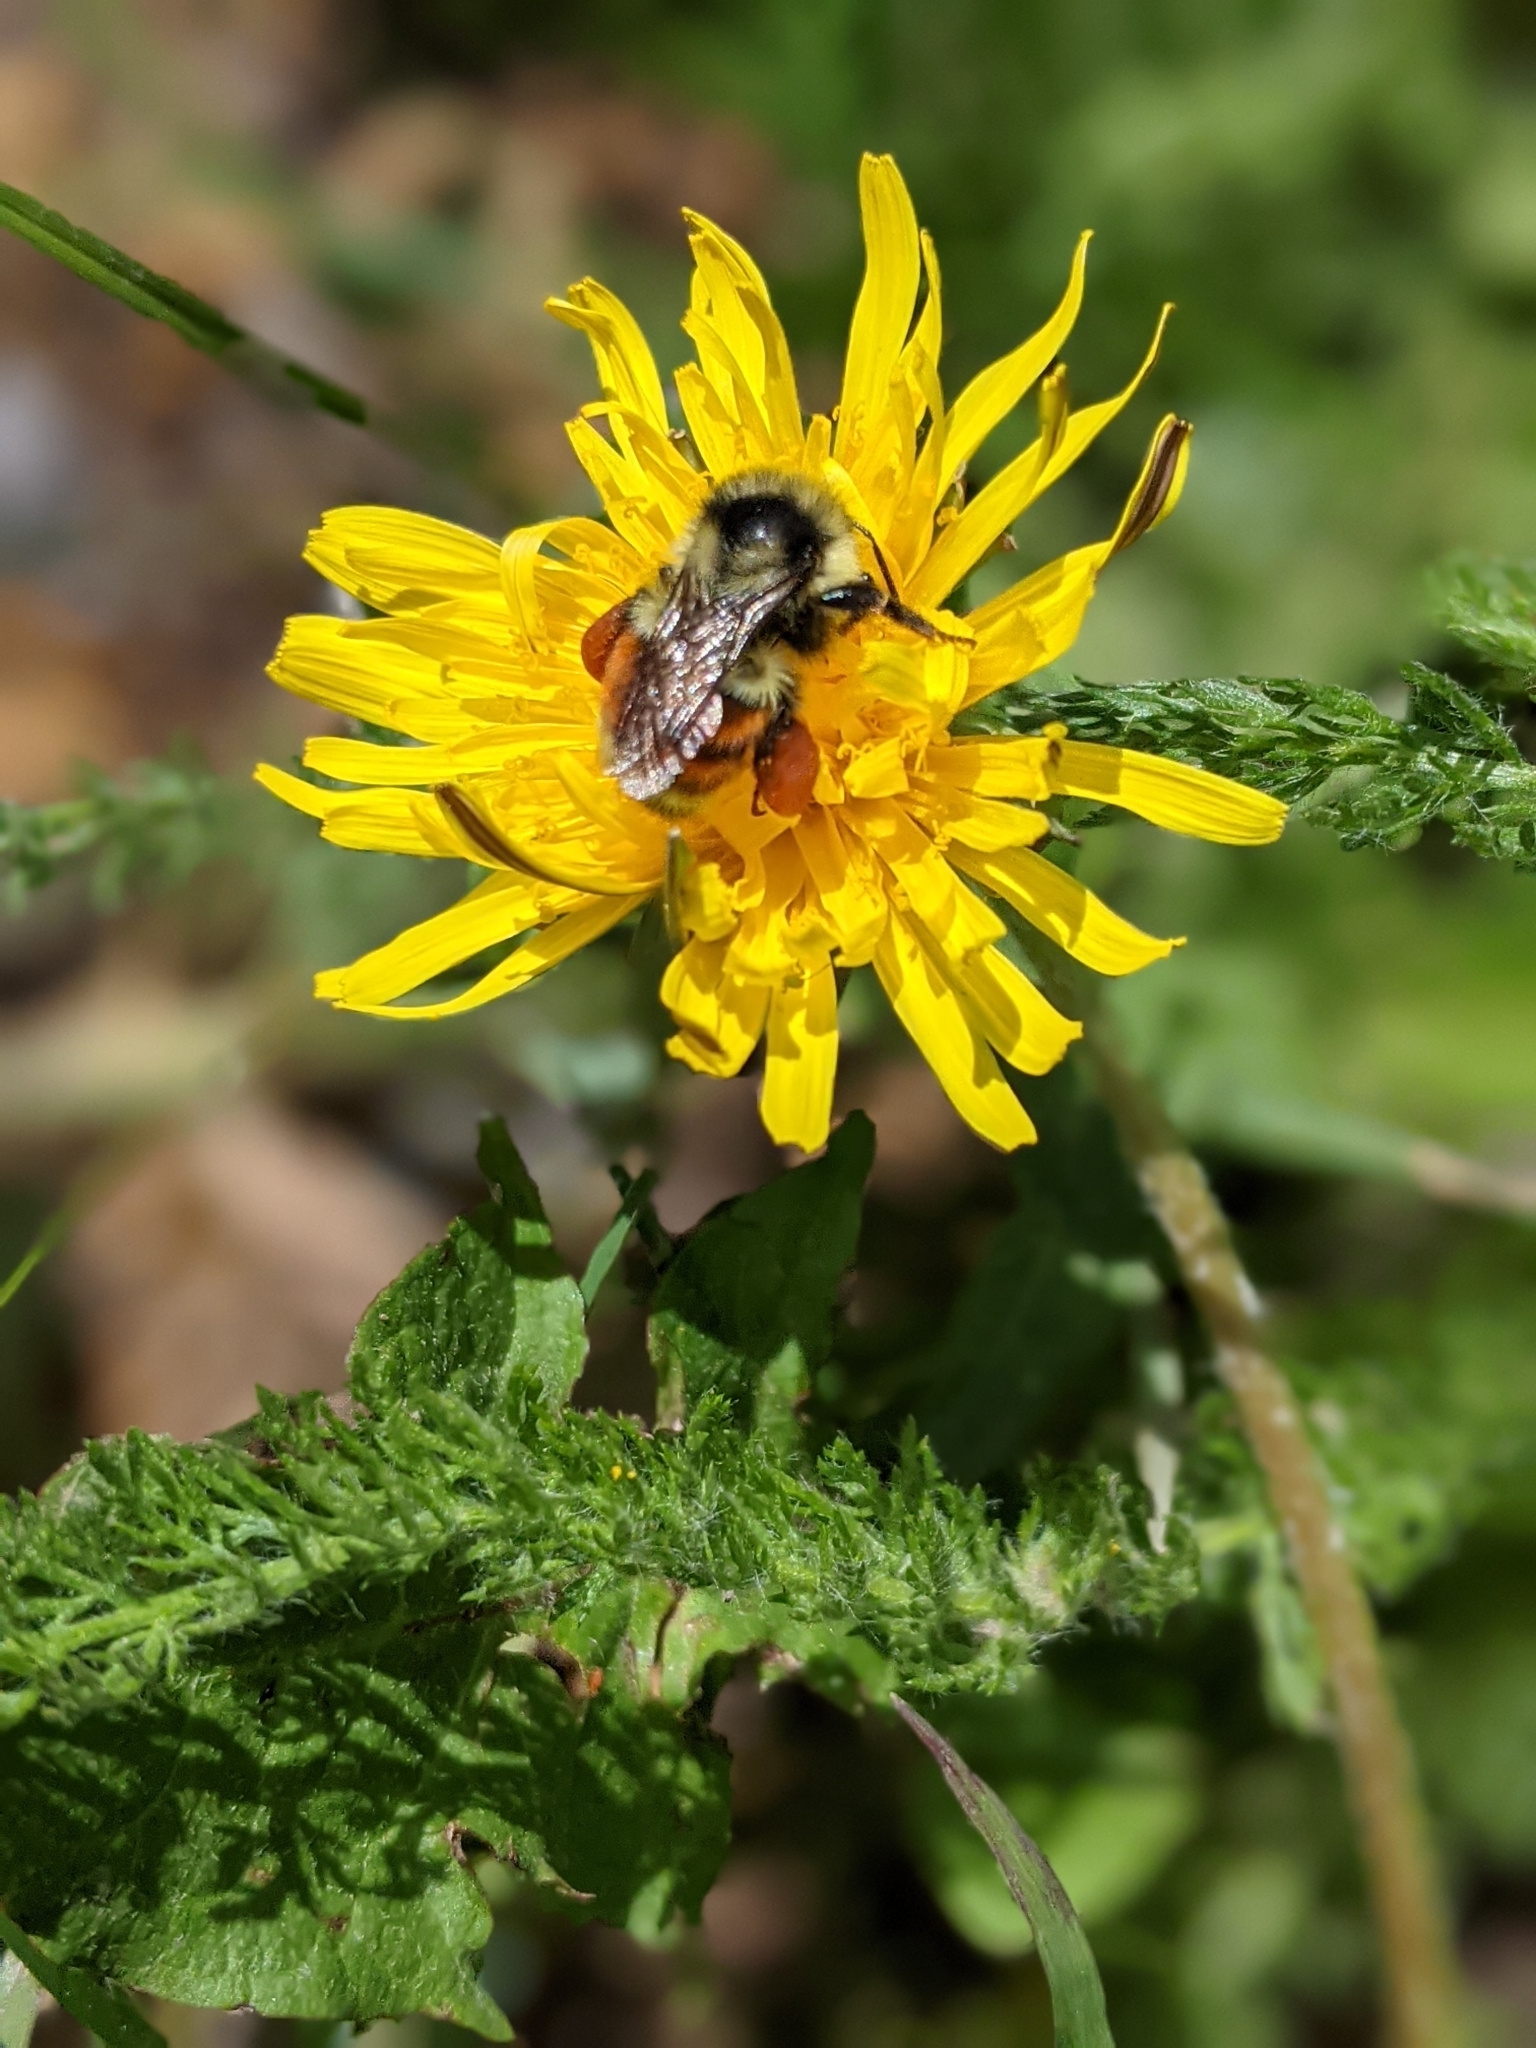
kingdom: Animalia
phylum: Arthropoda
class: Insecta
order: Hymenoptera
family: Apidae
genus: Bombus
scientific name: Bombus bifarius
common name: Two form bumble bee
